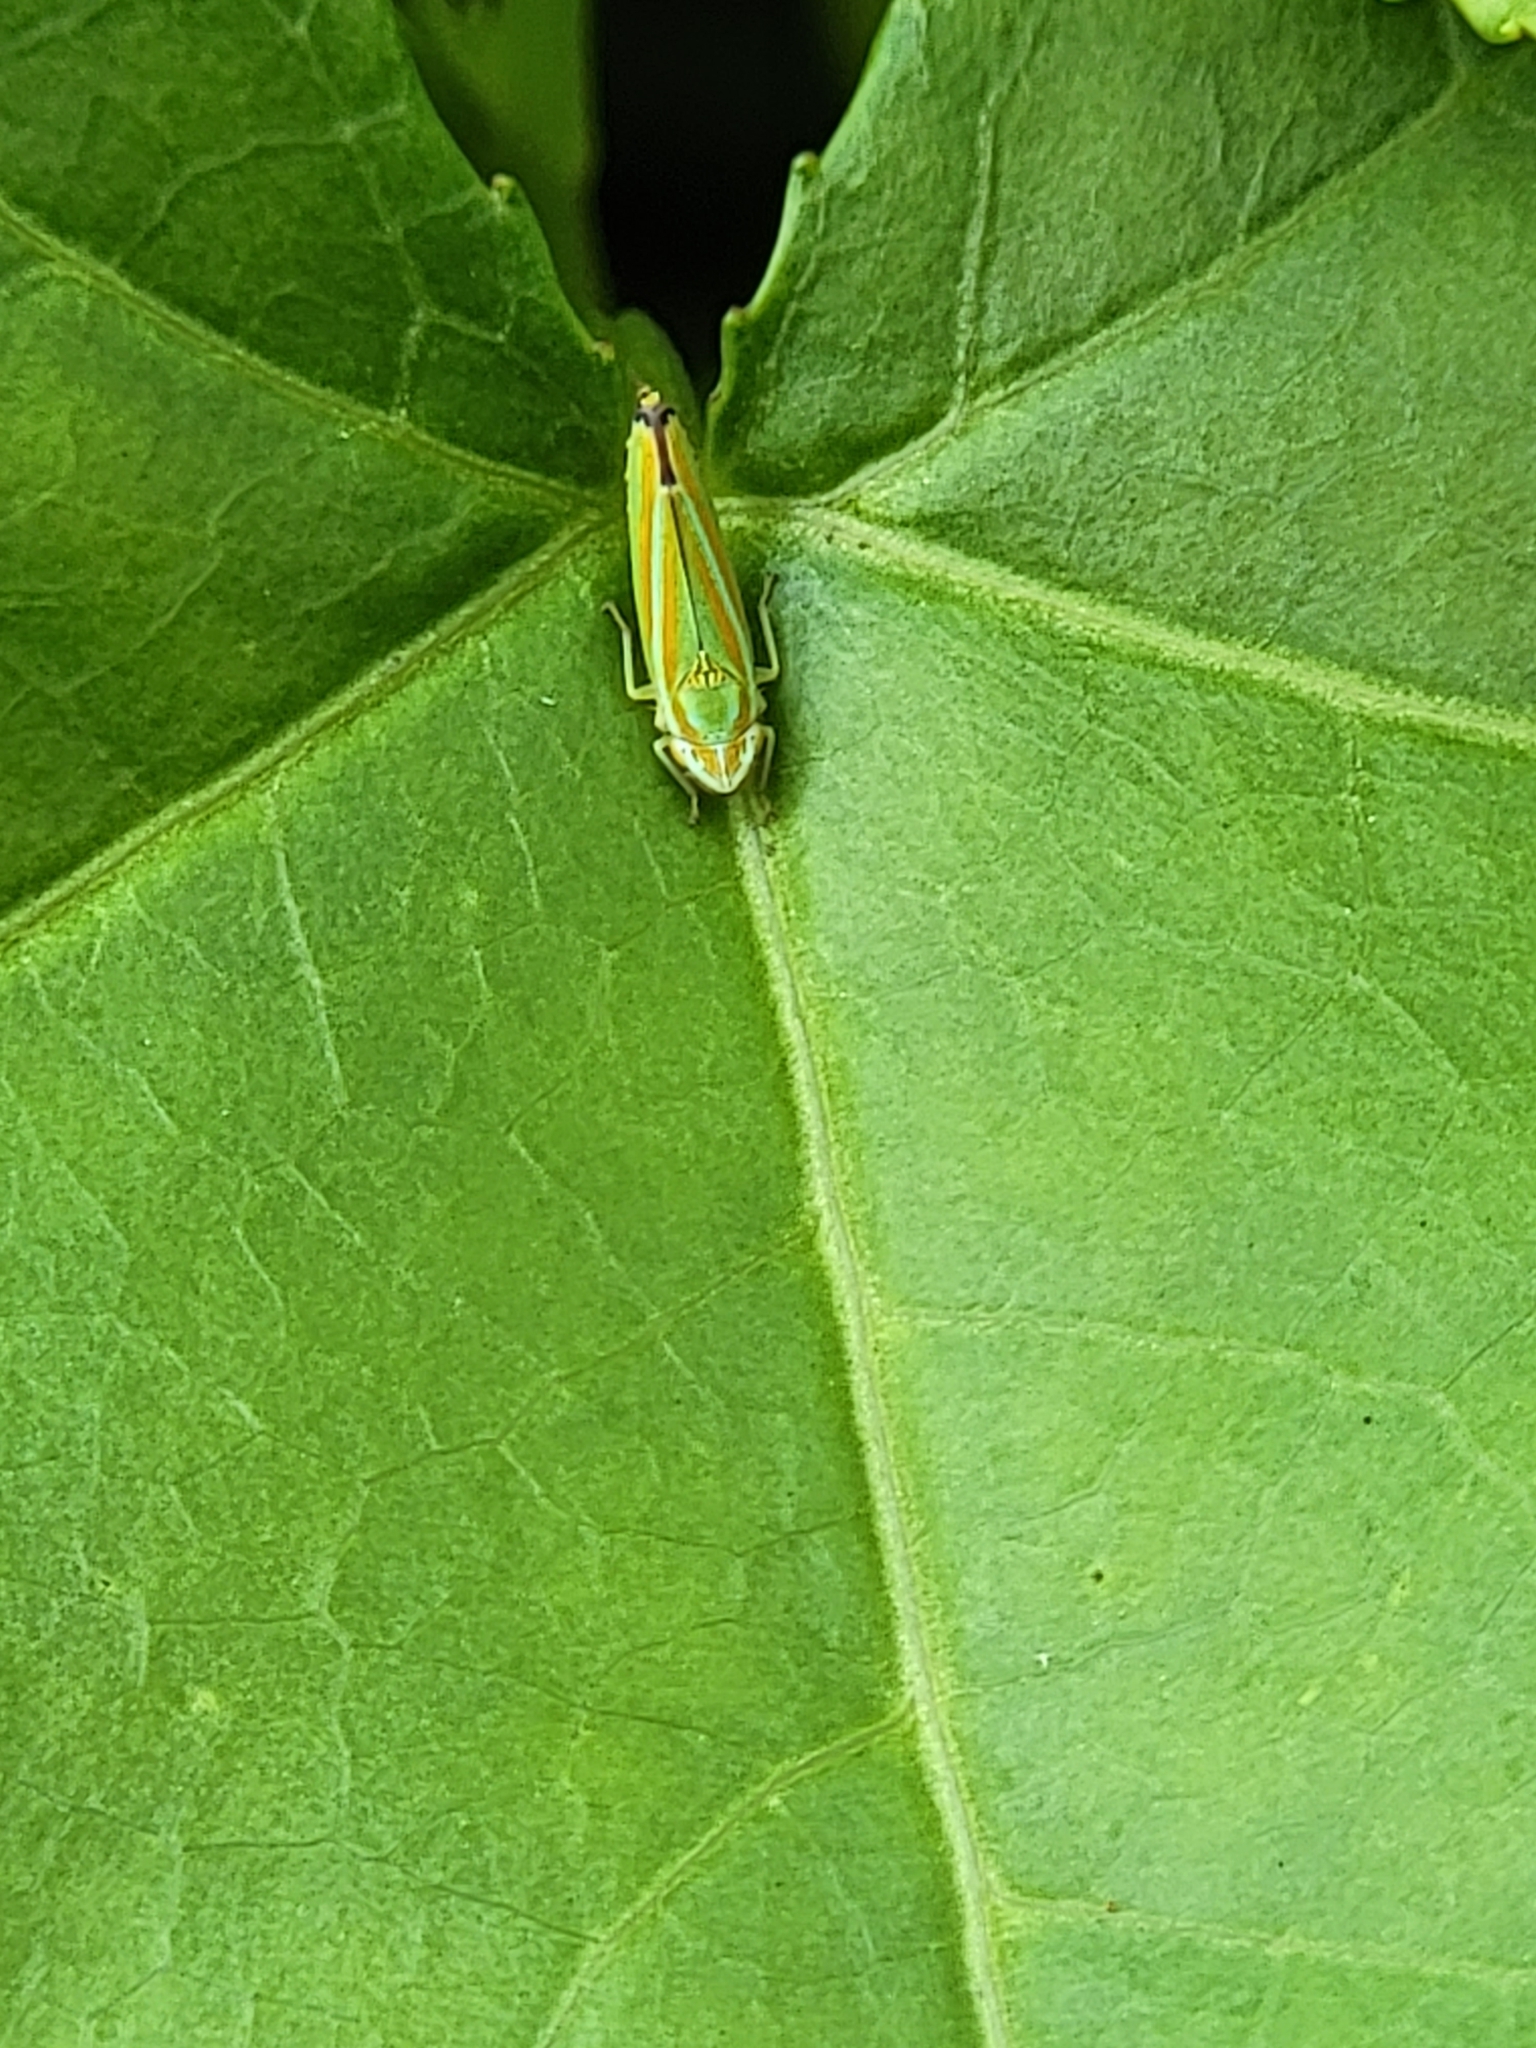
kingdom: Animalia
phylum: Arthropoda
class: Insecta
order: Hemiptera
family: Cicadellidae
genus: Graphocephala
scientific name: Graphocephala versuta
